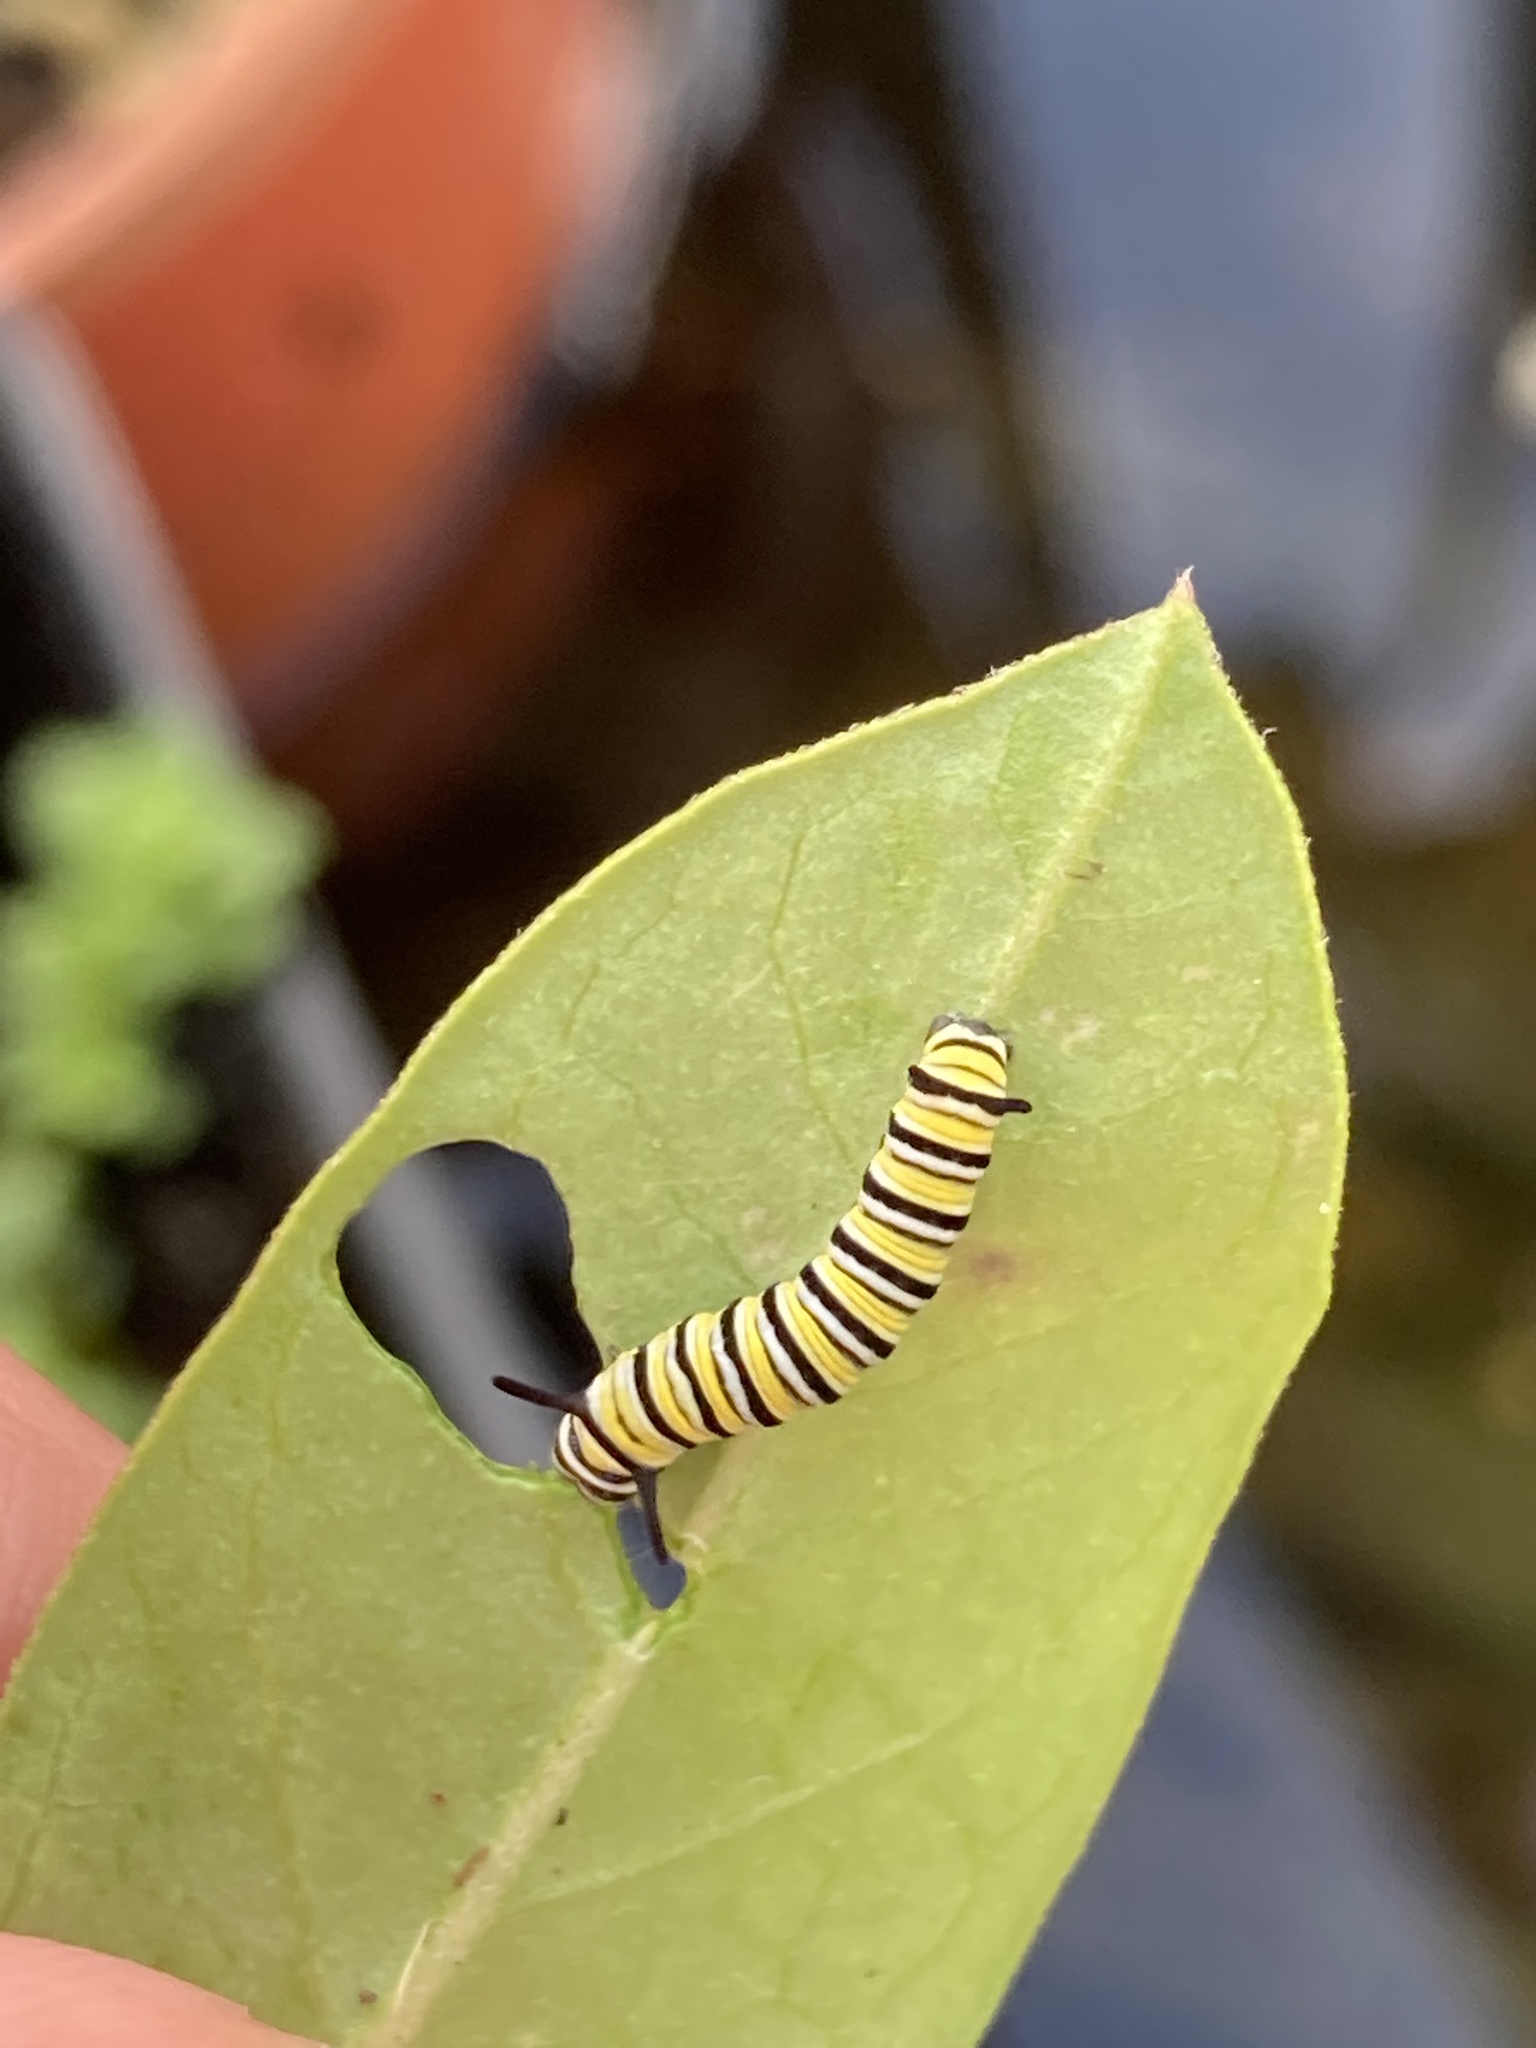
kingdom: Animalia
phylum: Arthropoda
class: Insecta
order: Lepidoptera
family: Nymphalidae
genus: Danaus
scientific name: Danaus plexippus
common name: Monarch
